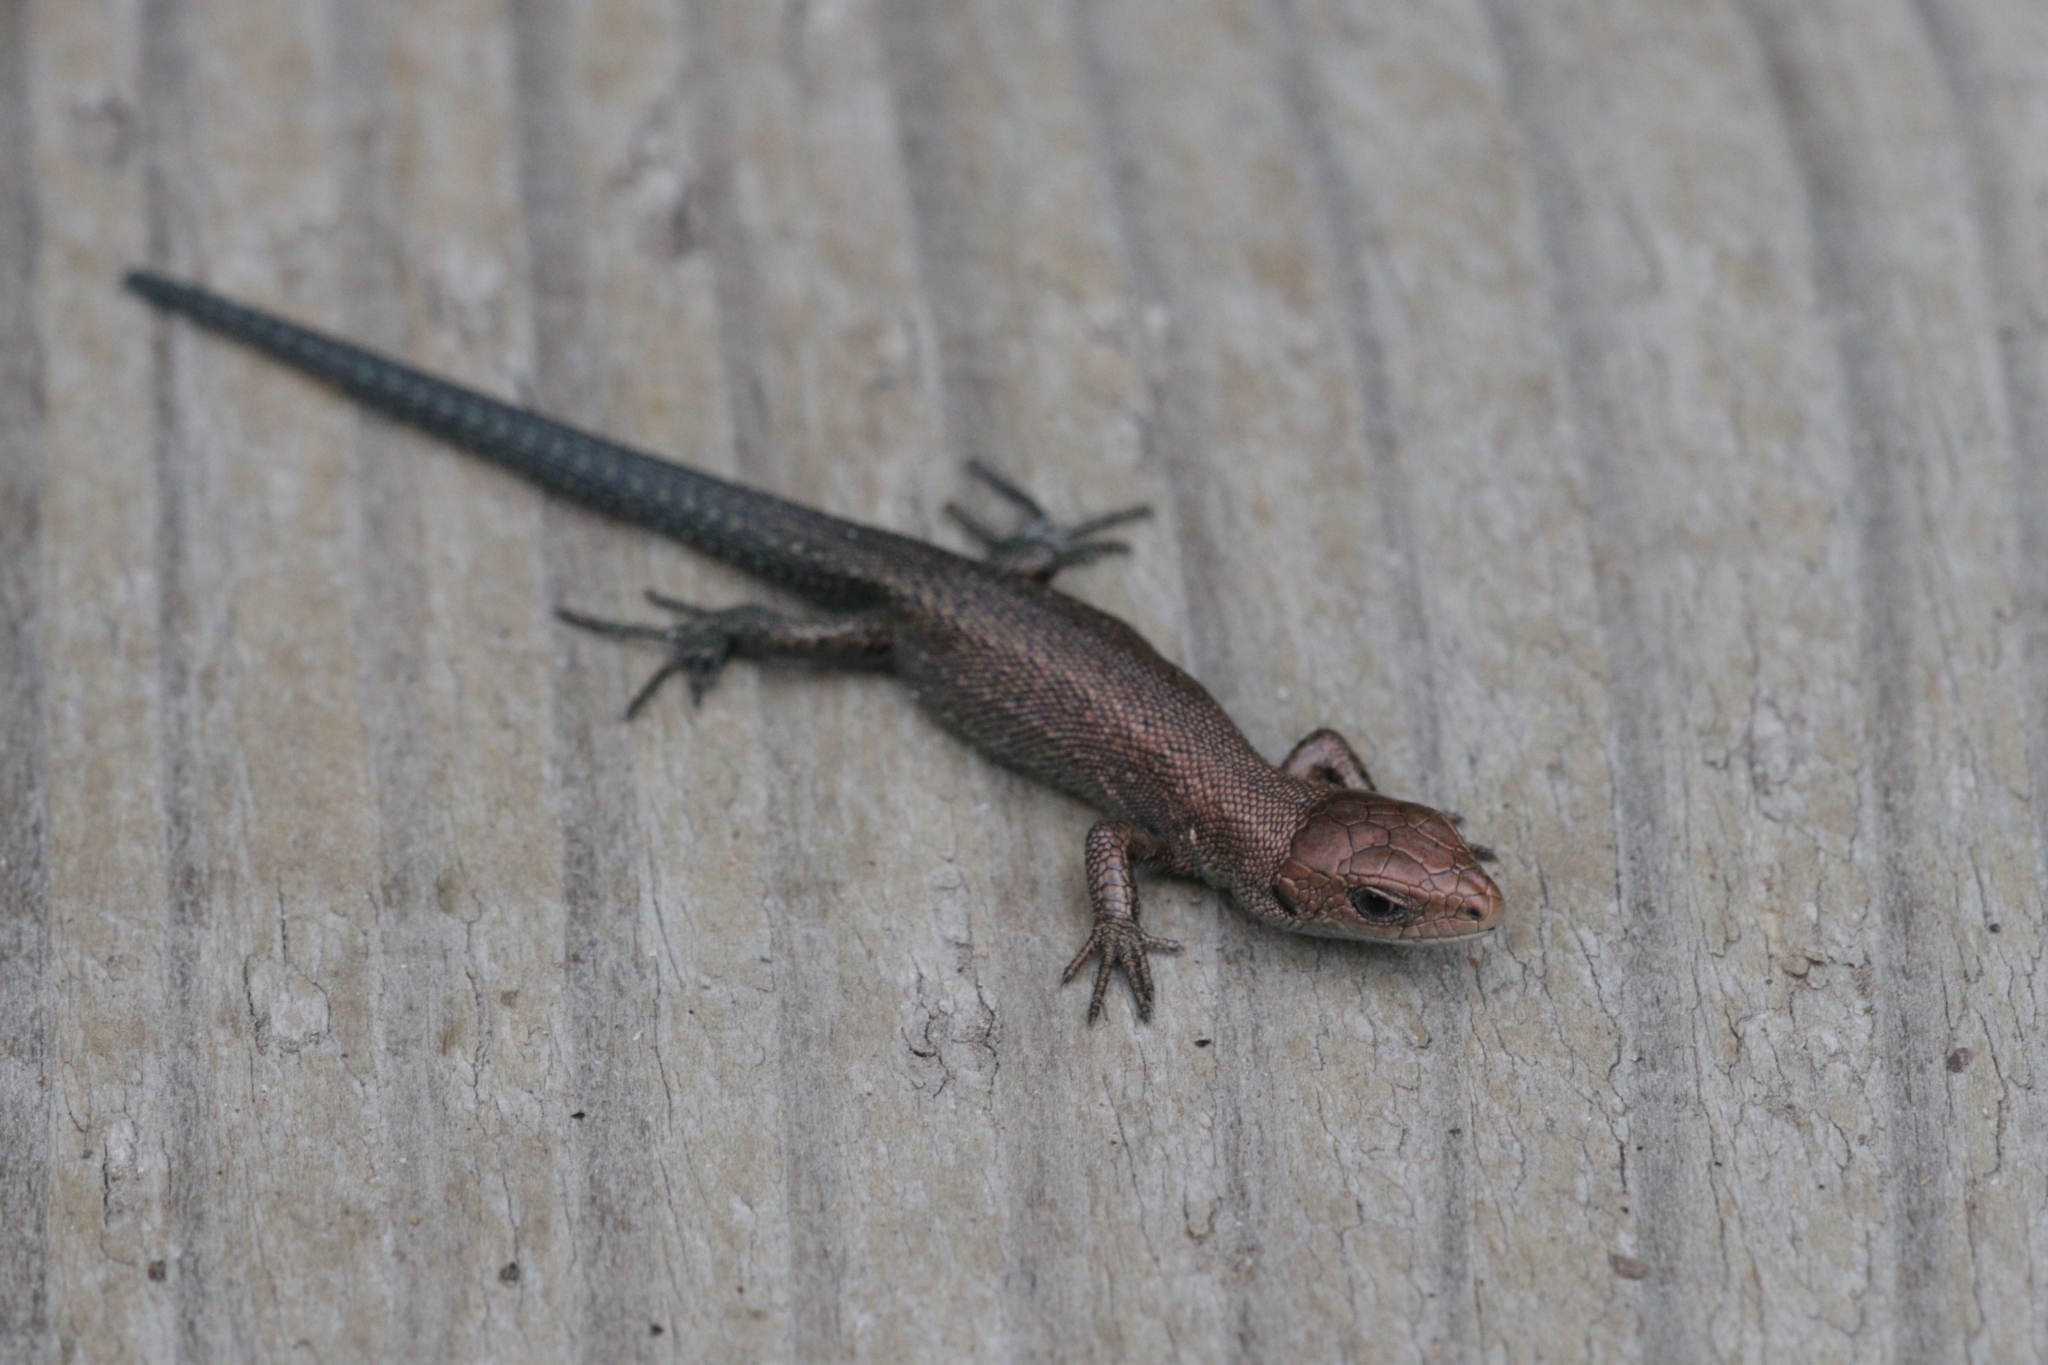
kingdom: Animalia
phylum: Chordata
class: Squamata
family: Lacertidae
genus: Zootoca
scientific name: Zootoca vivipara
